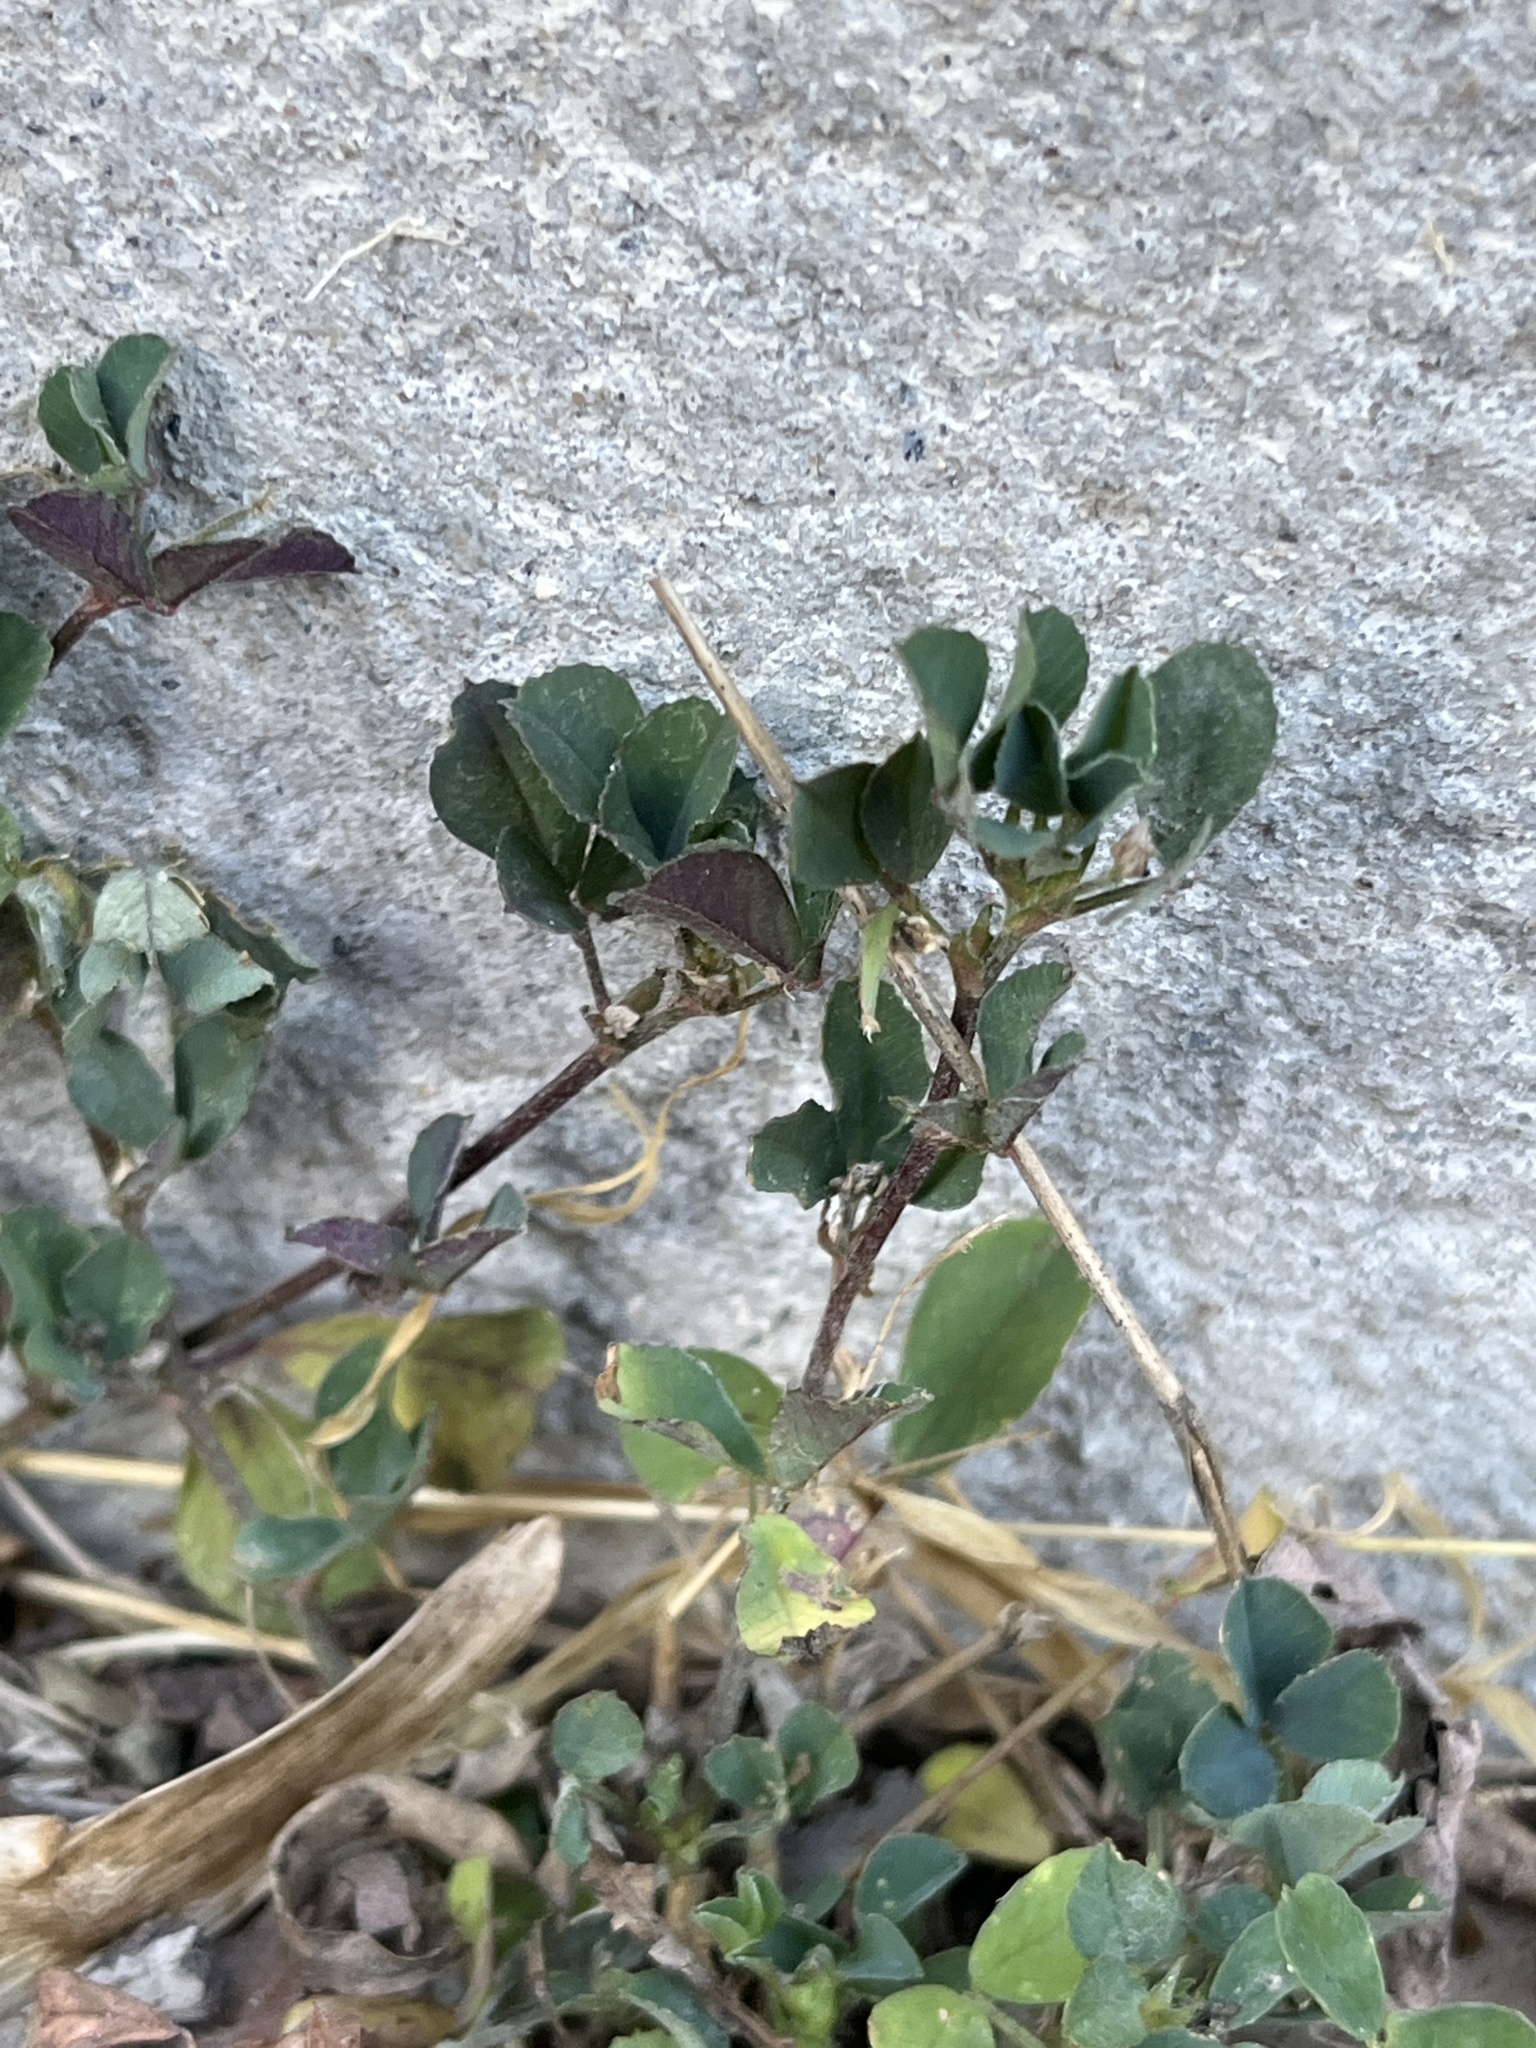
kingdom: Plantae
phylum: Tracheophyta
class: Magnoliopsida
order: Fabales
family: Fabaceae
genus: Medicago
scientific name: Medicago lupulina
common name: Black medick
